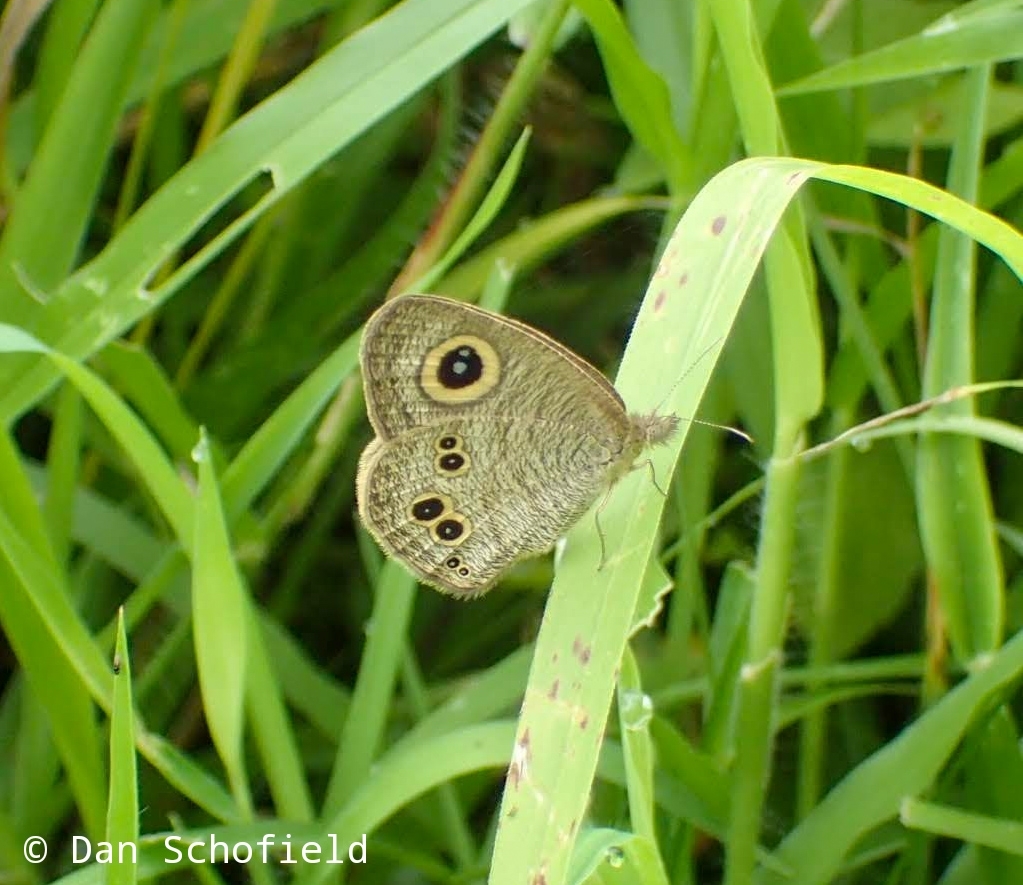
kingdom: Animalia
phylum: Arthropoda
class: Insecta
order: Lepidoptera
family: Nymphalidae
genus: Ypthima
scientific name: Ypthima baldus
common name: Common five-ring
